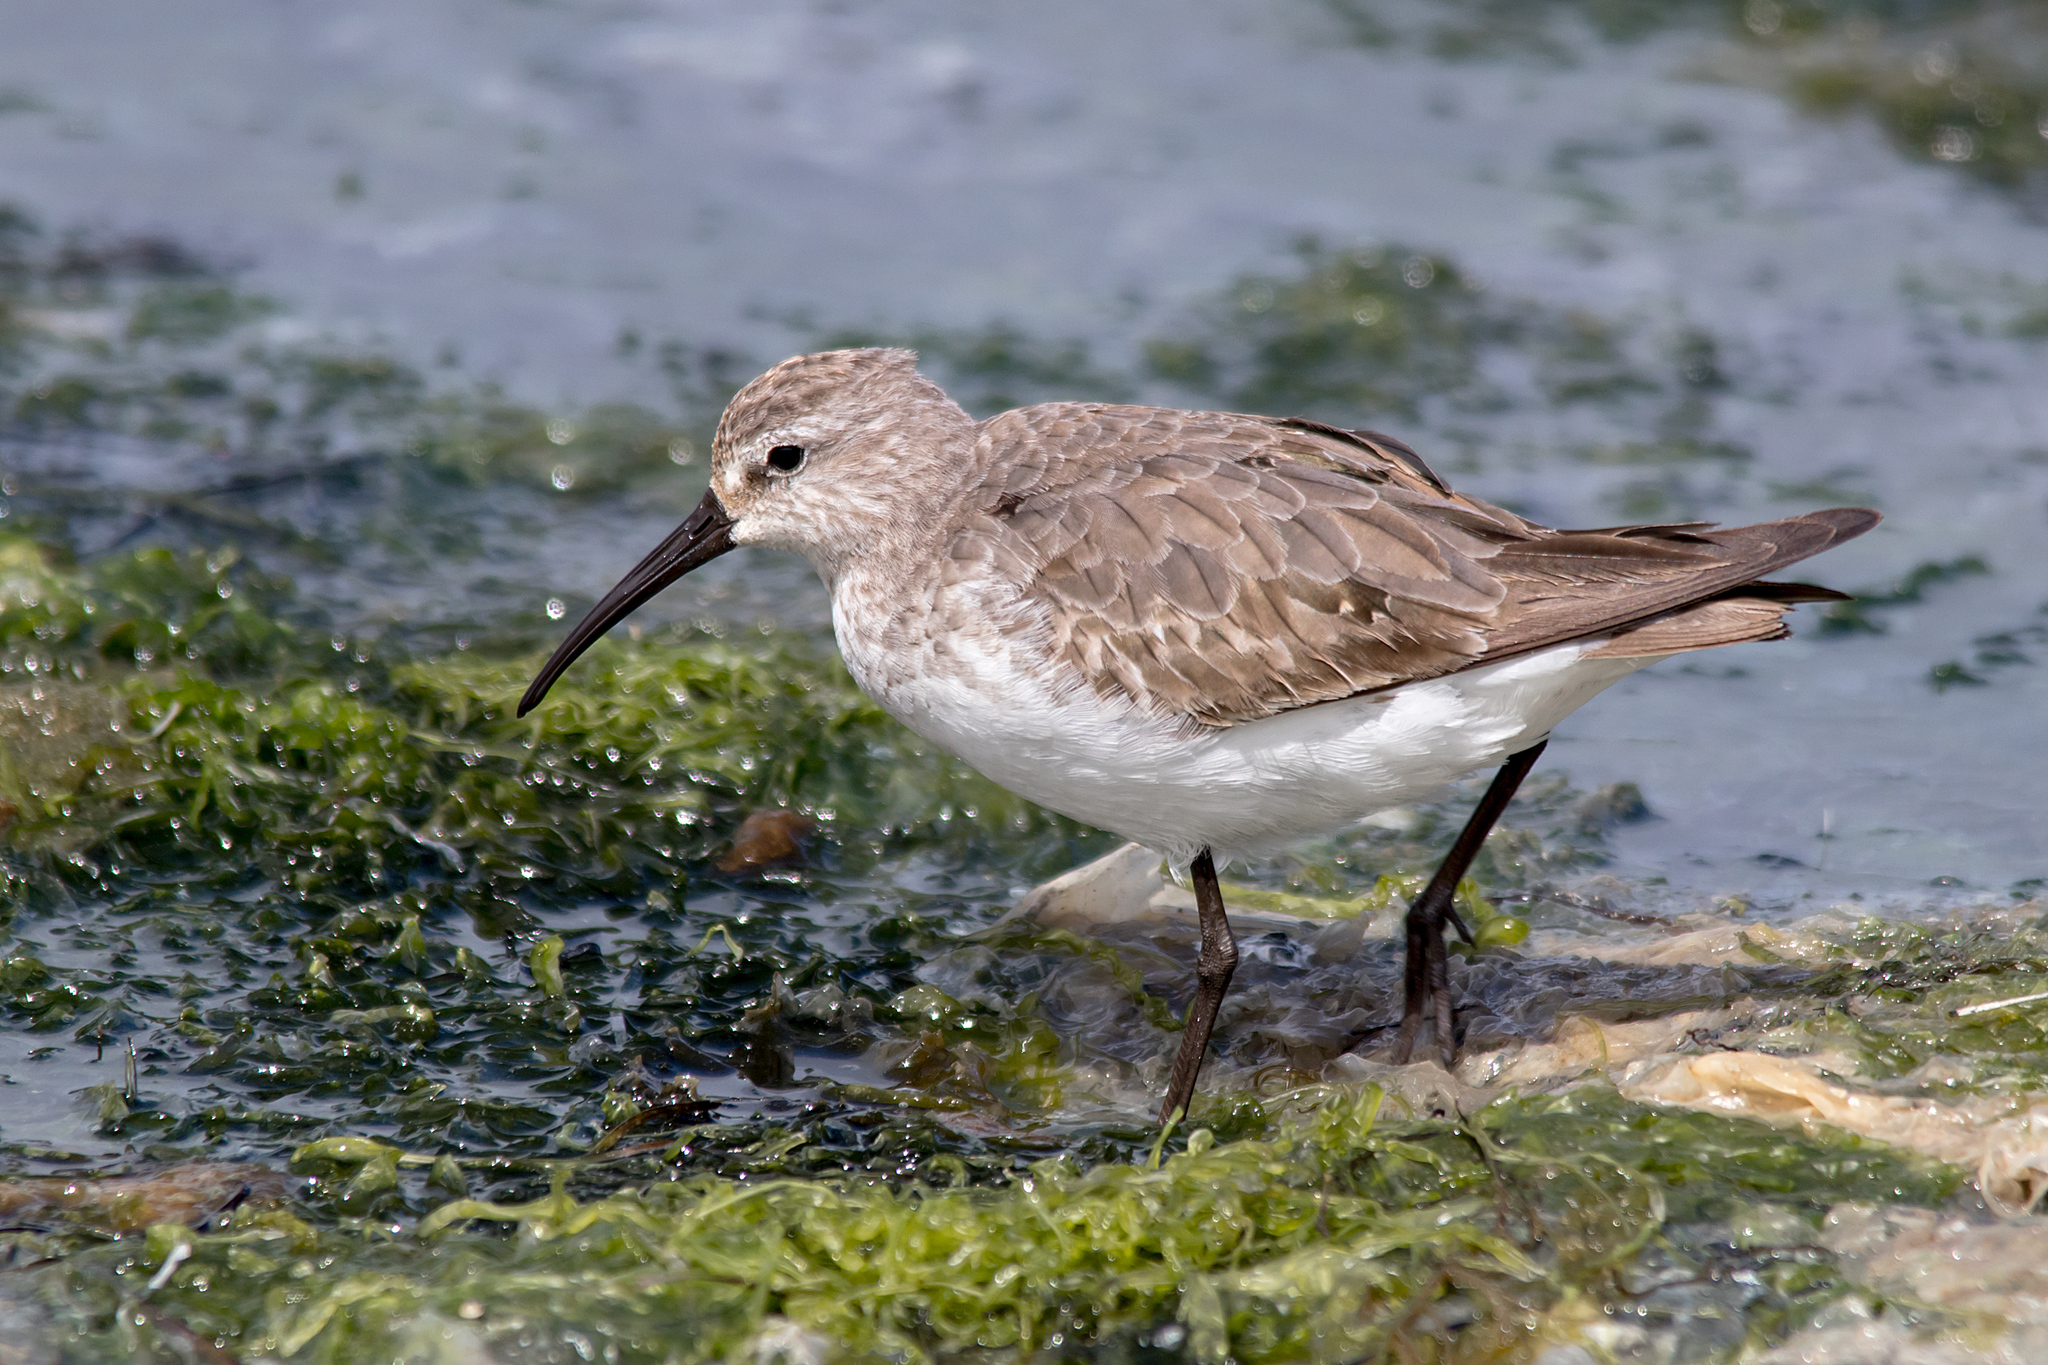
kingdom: Animalia
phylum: Chordata
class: Aves
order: Charadriiformes
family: Scolopacidae
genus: Calidris
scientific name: Calidris ferruginea
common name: Curlew sandpiper
